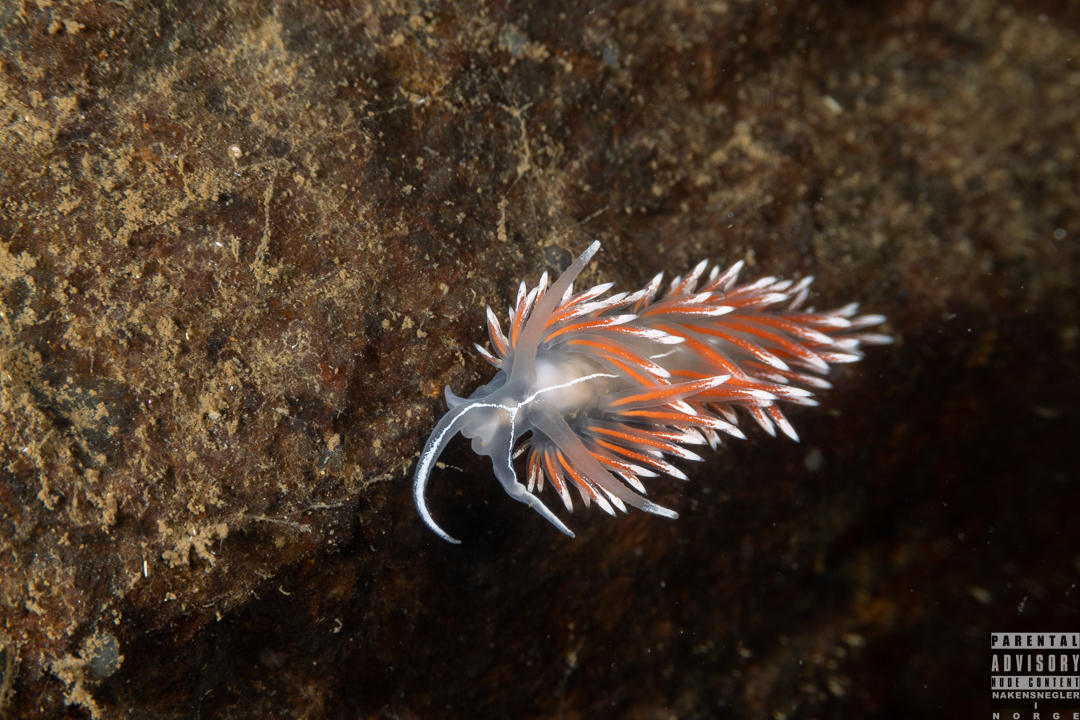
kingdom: Animalia
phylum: Mollusca
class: Gastropoda
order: Nudibranchia
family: Coryphellidae
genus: Coryphella
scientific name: Coryphella lineata
